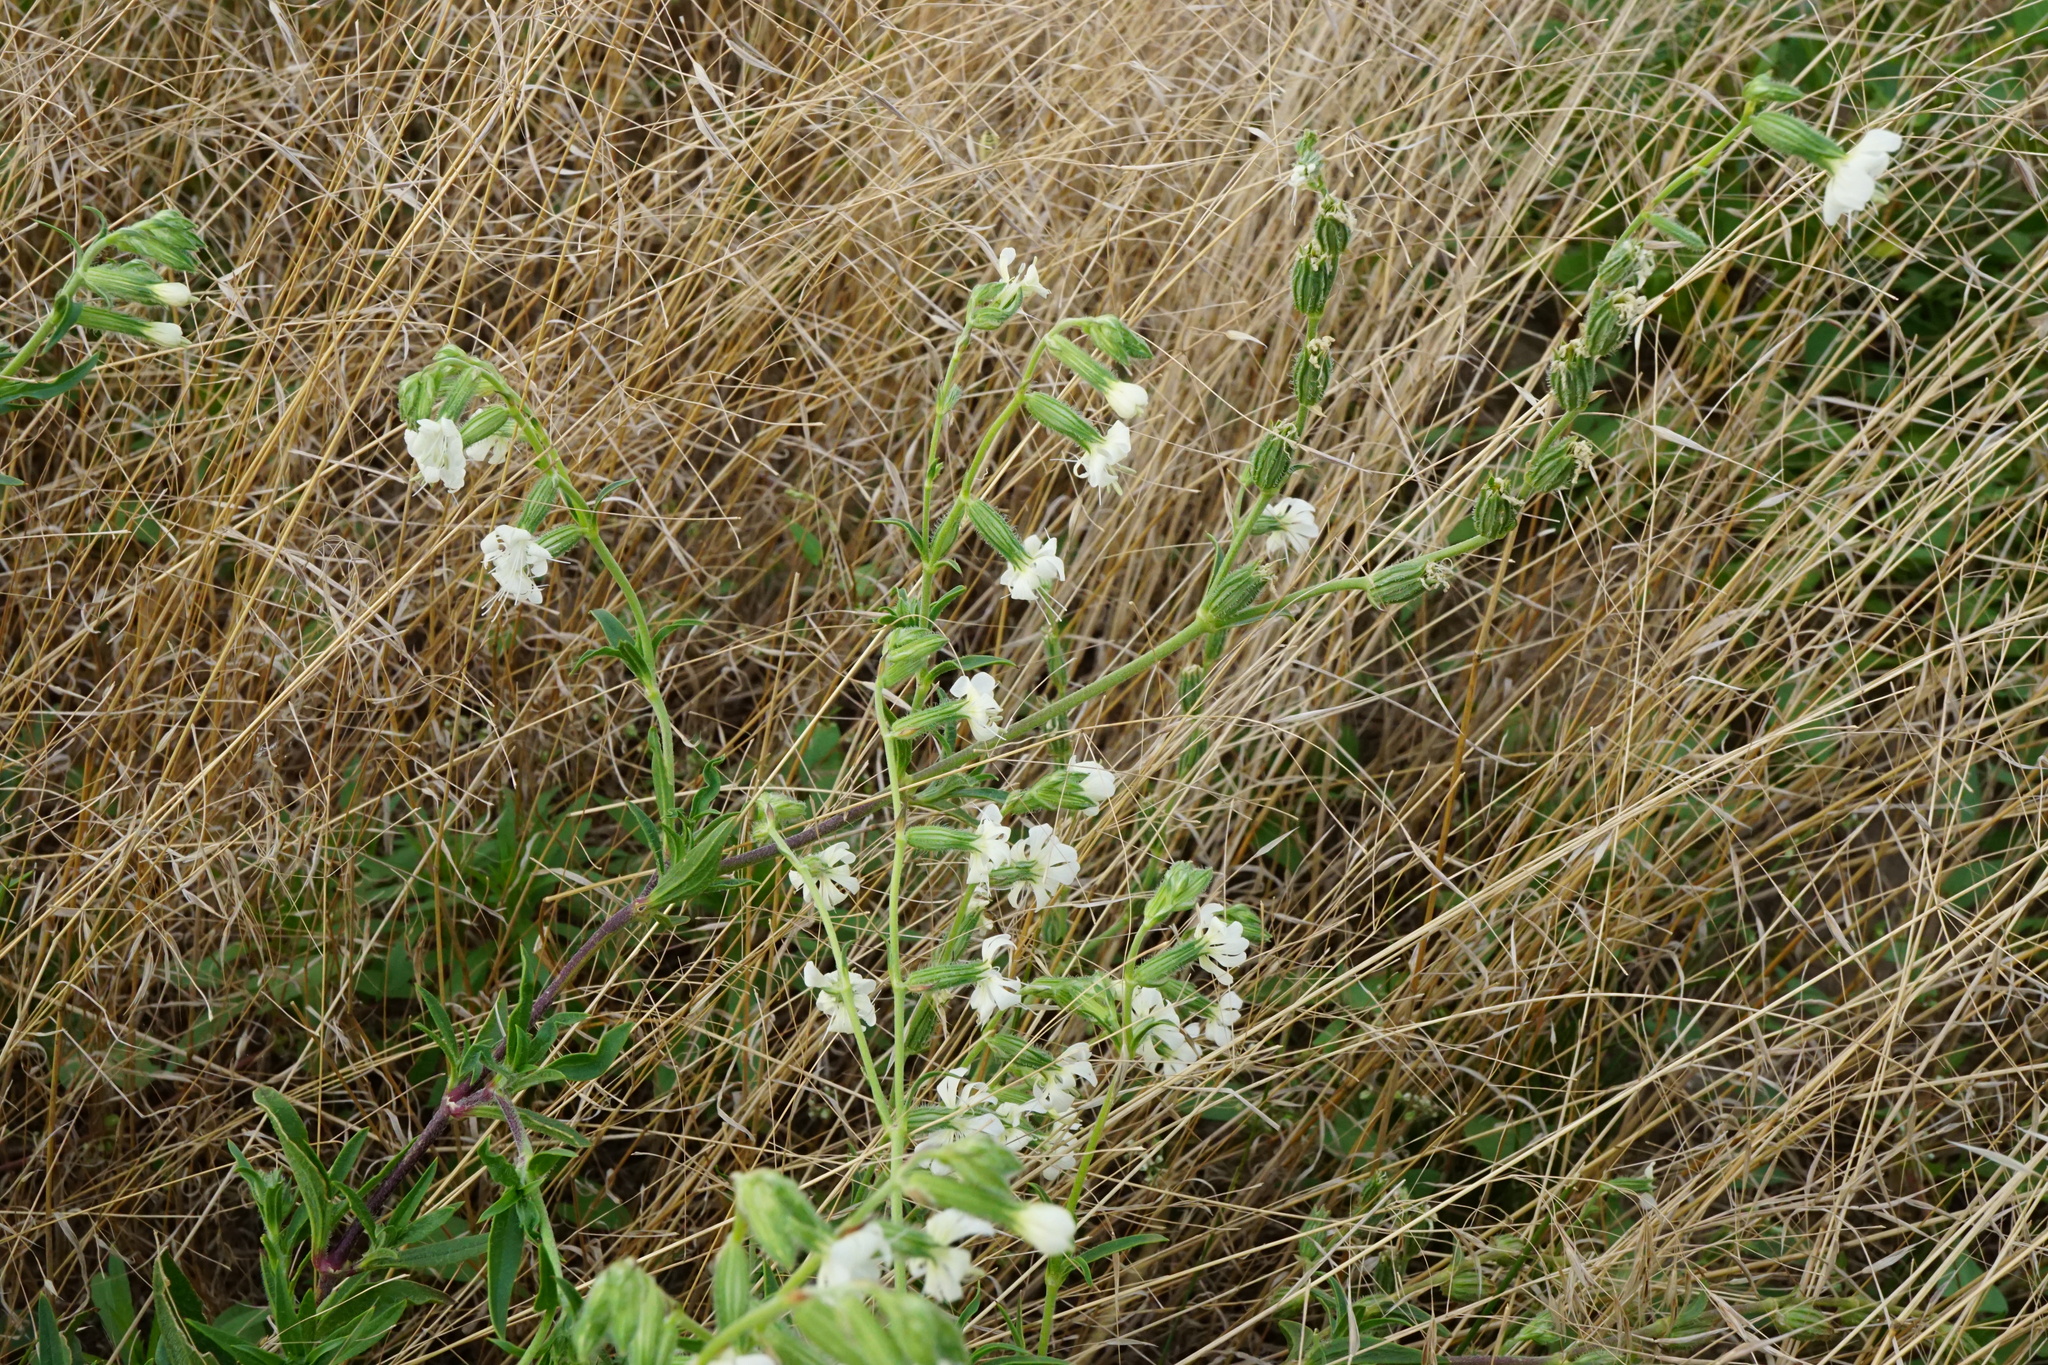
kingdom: Plantae
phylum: Tracheophyta
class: Magnoliopsida
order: Caryophyllales
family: Caryophyllaceae
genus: Silene
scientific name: Silene dichotoma
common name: Forked catchfly
